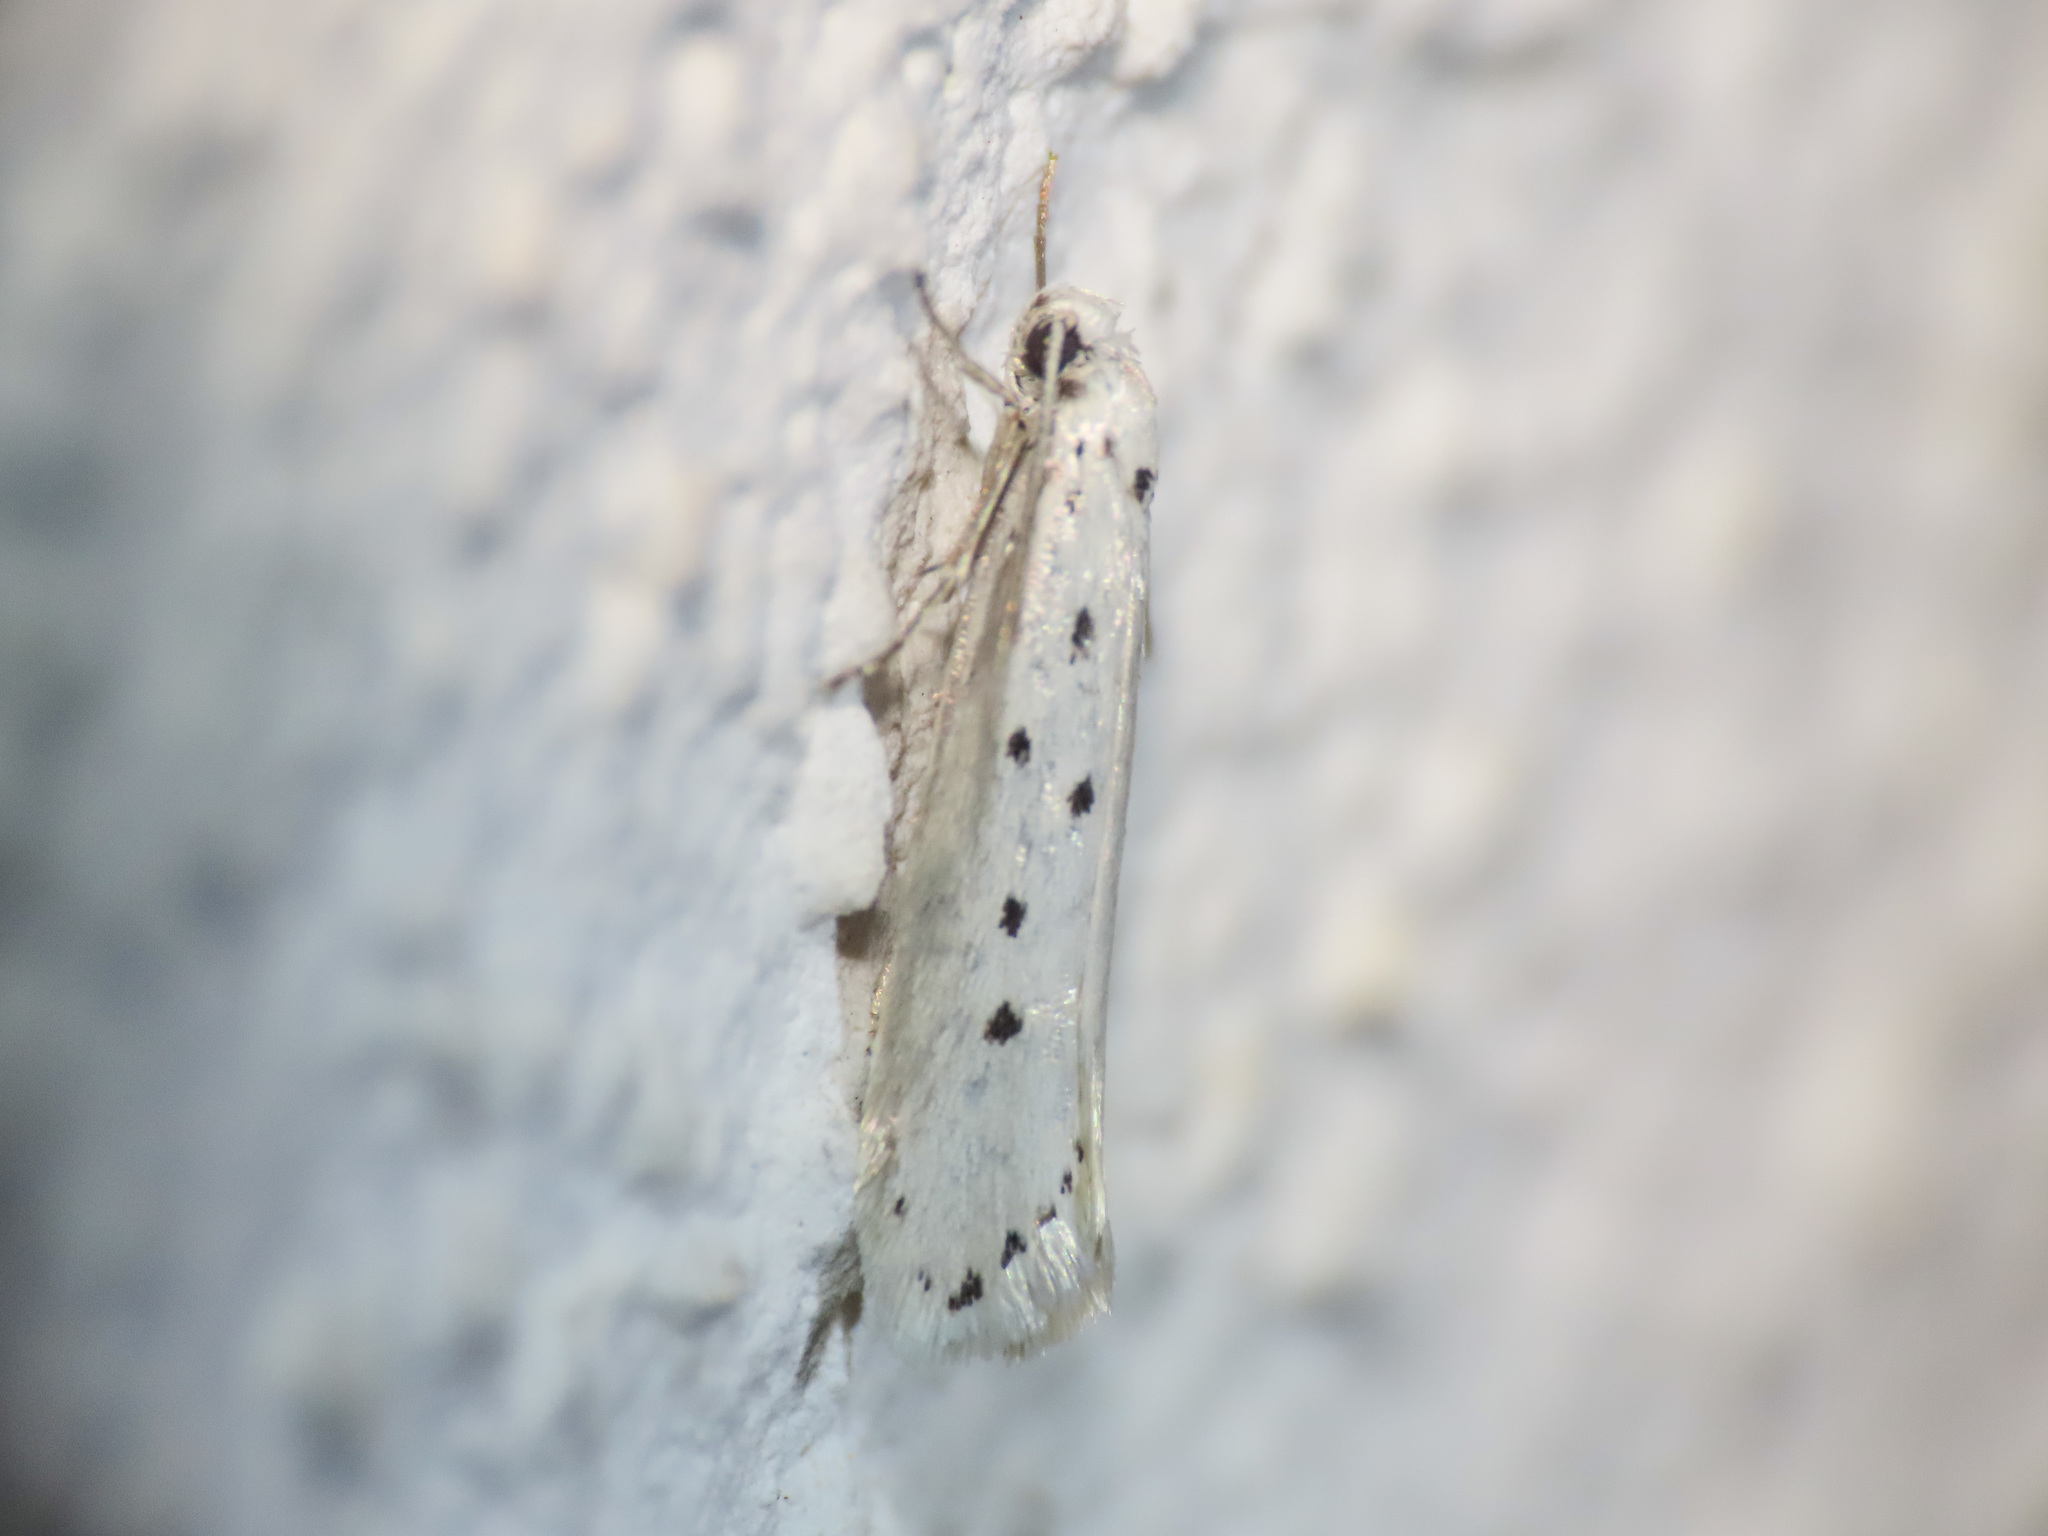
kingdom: Animalia
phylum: Arthropoda
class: Insecta
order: Lepidoptera
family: Ethmiidae
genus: Ethmia
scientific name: Ethmia terminella
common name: Five-spot ermel
